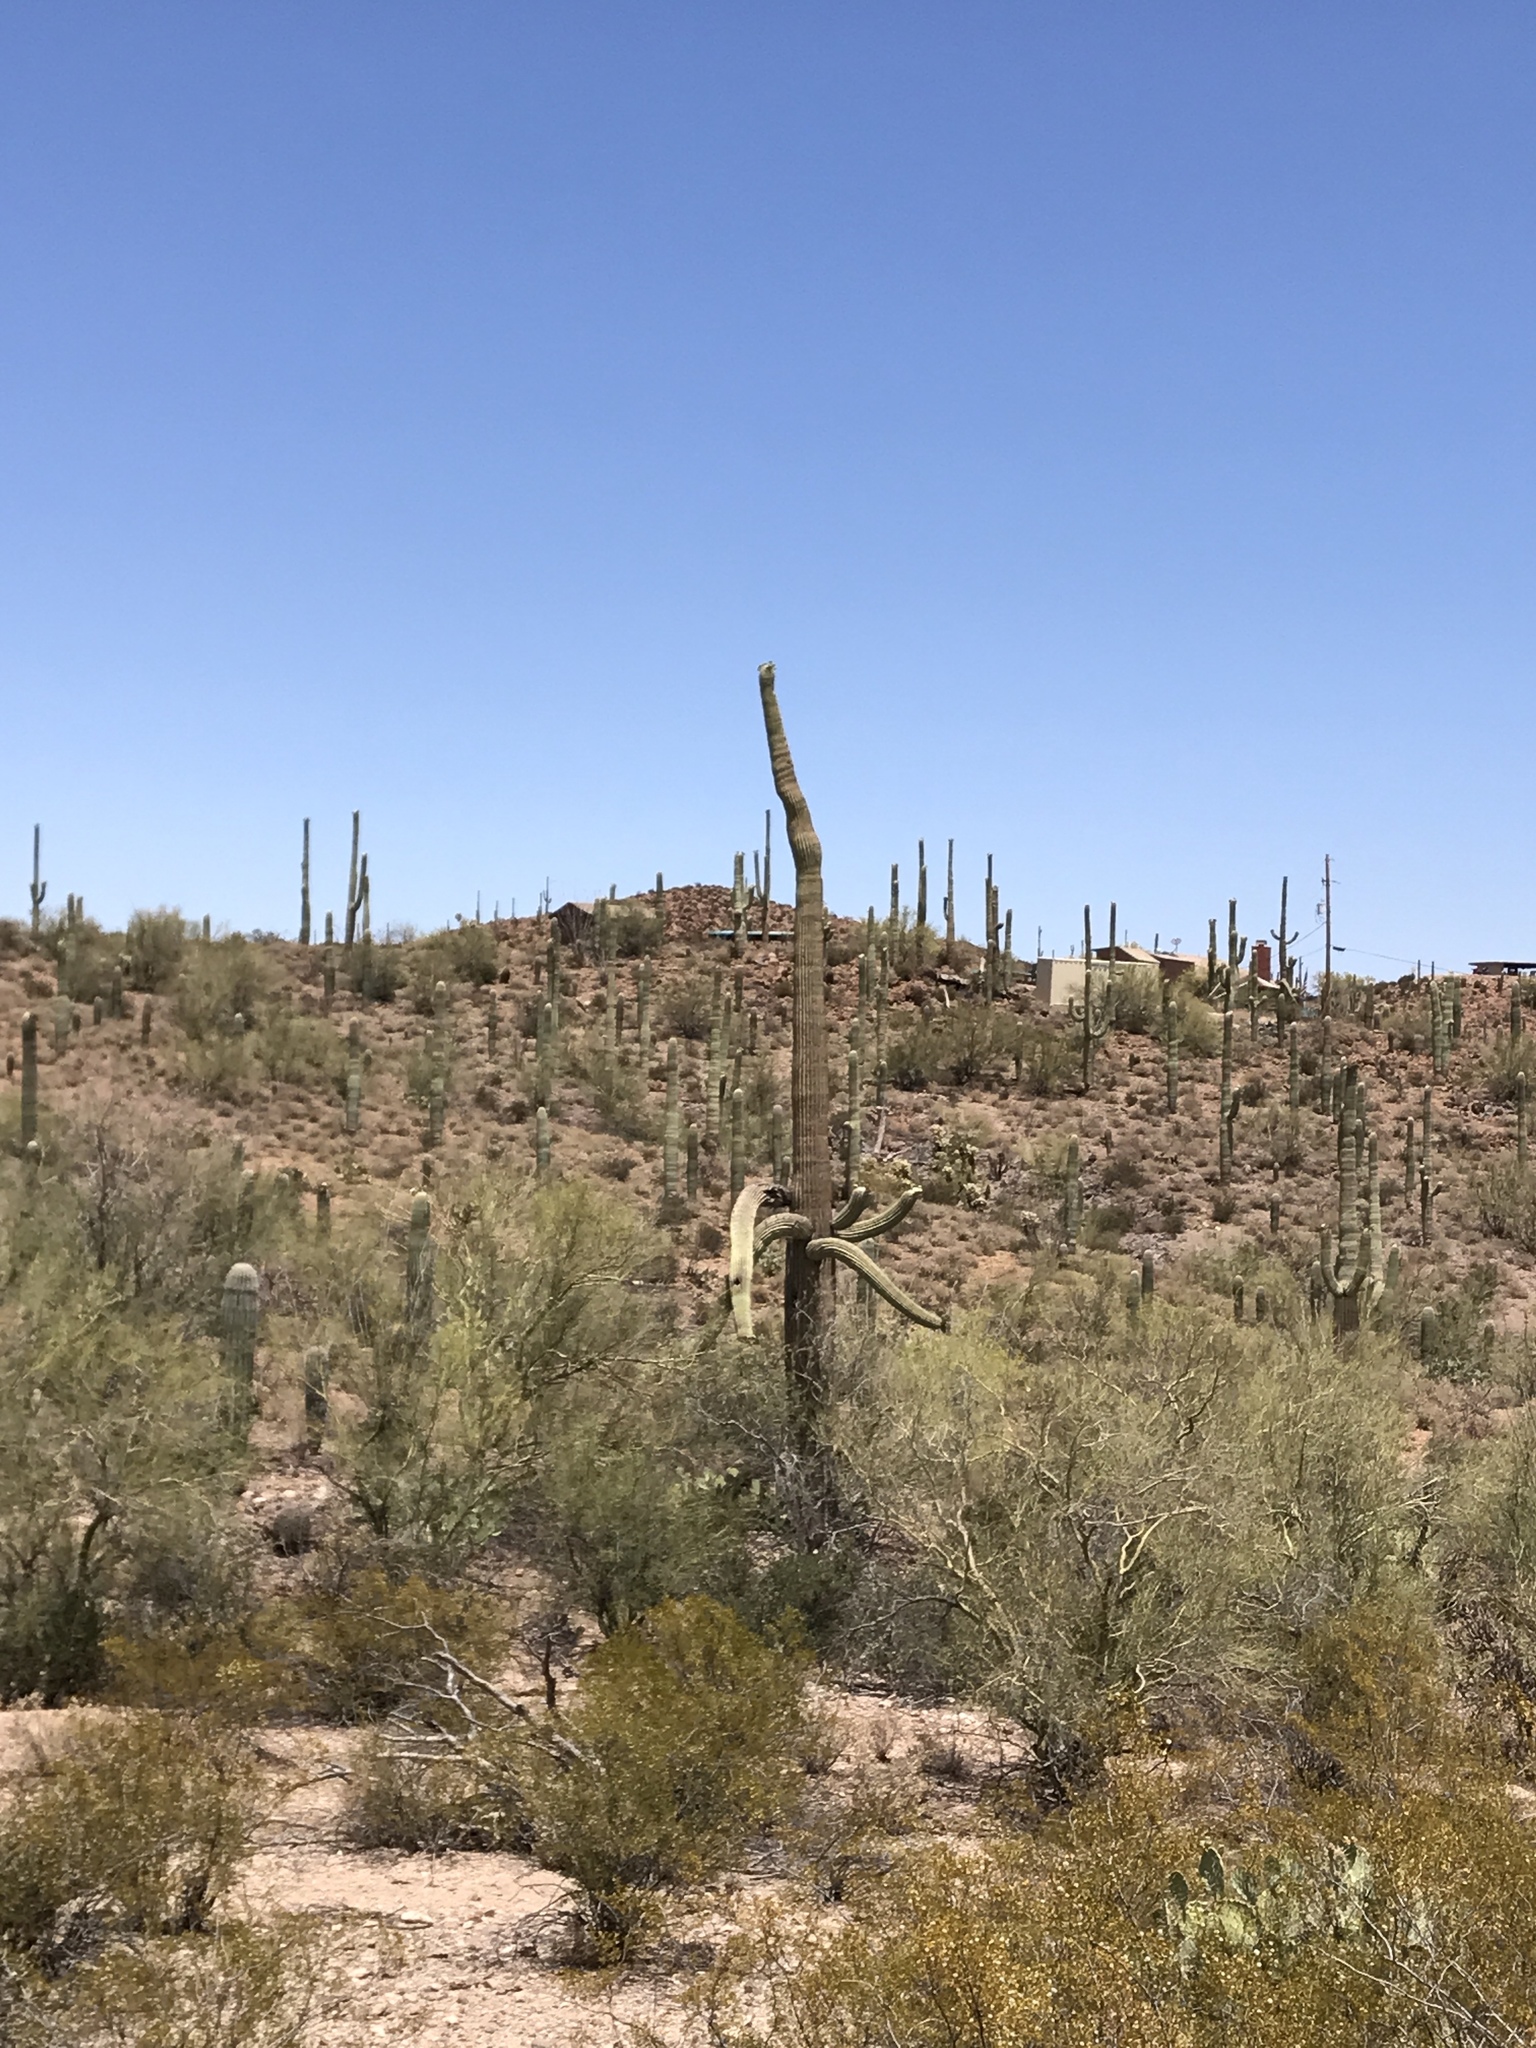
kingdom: Plantae
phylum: Tracheophyta
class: Magnoliopsida
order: Caryophyllales
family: Cactaceae
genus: Carnegiea
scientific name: Carnegiea gigantea
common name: Saguaro
